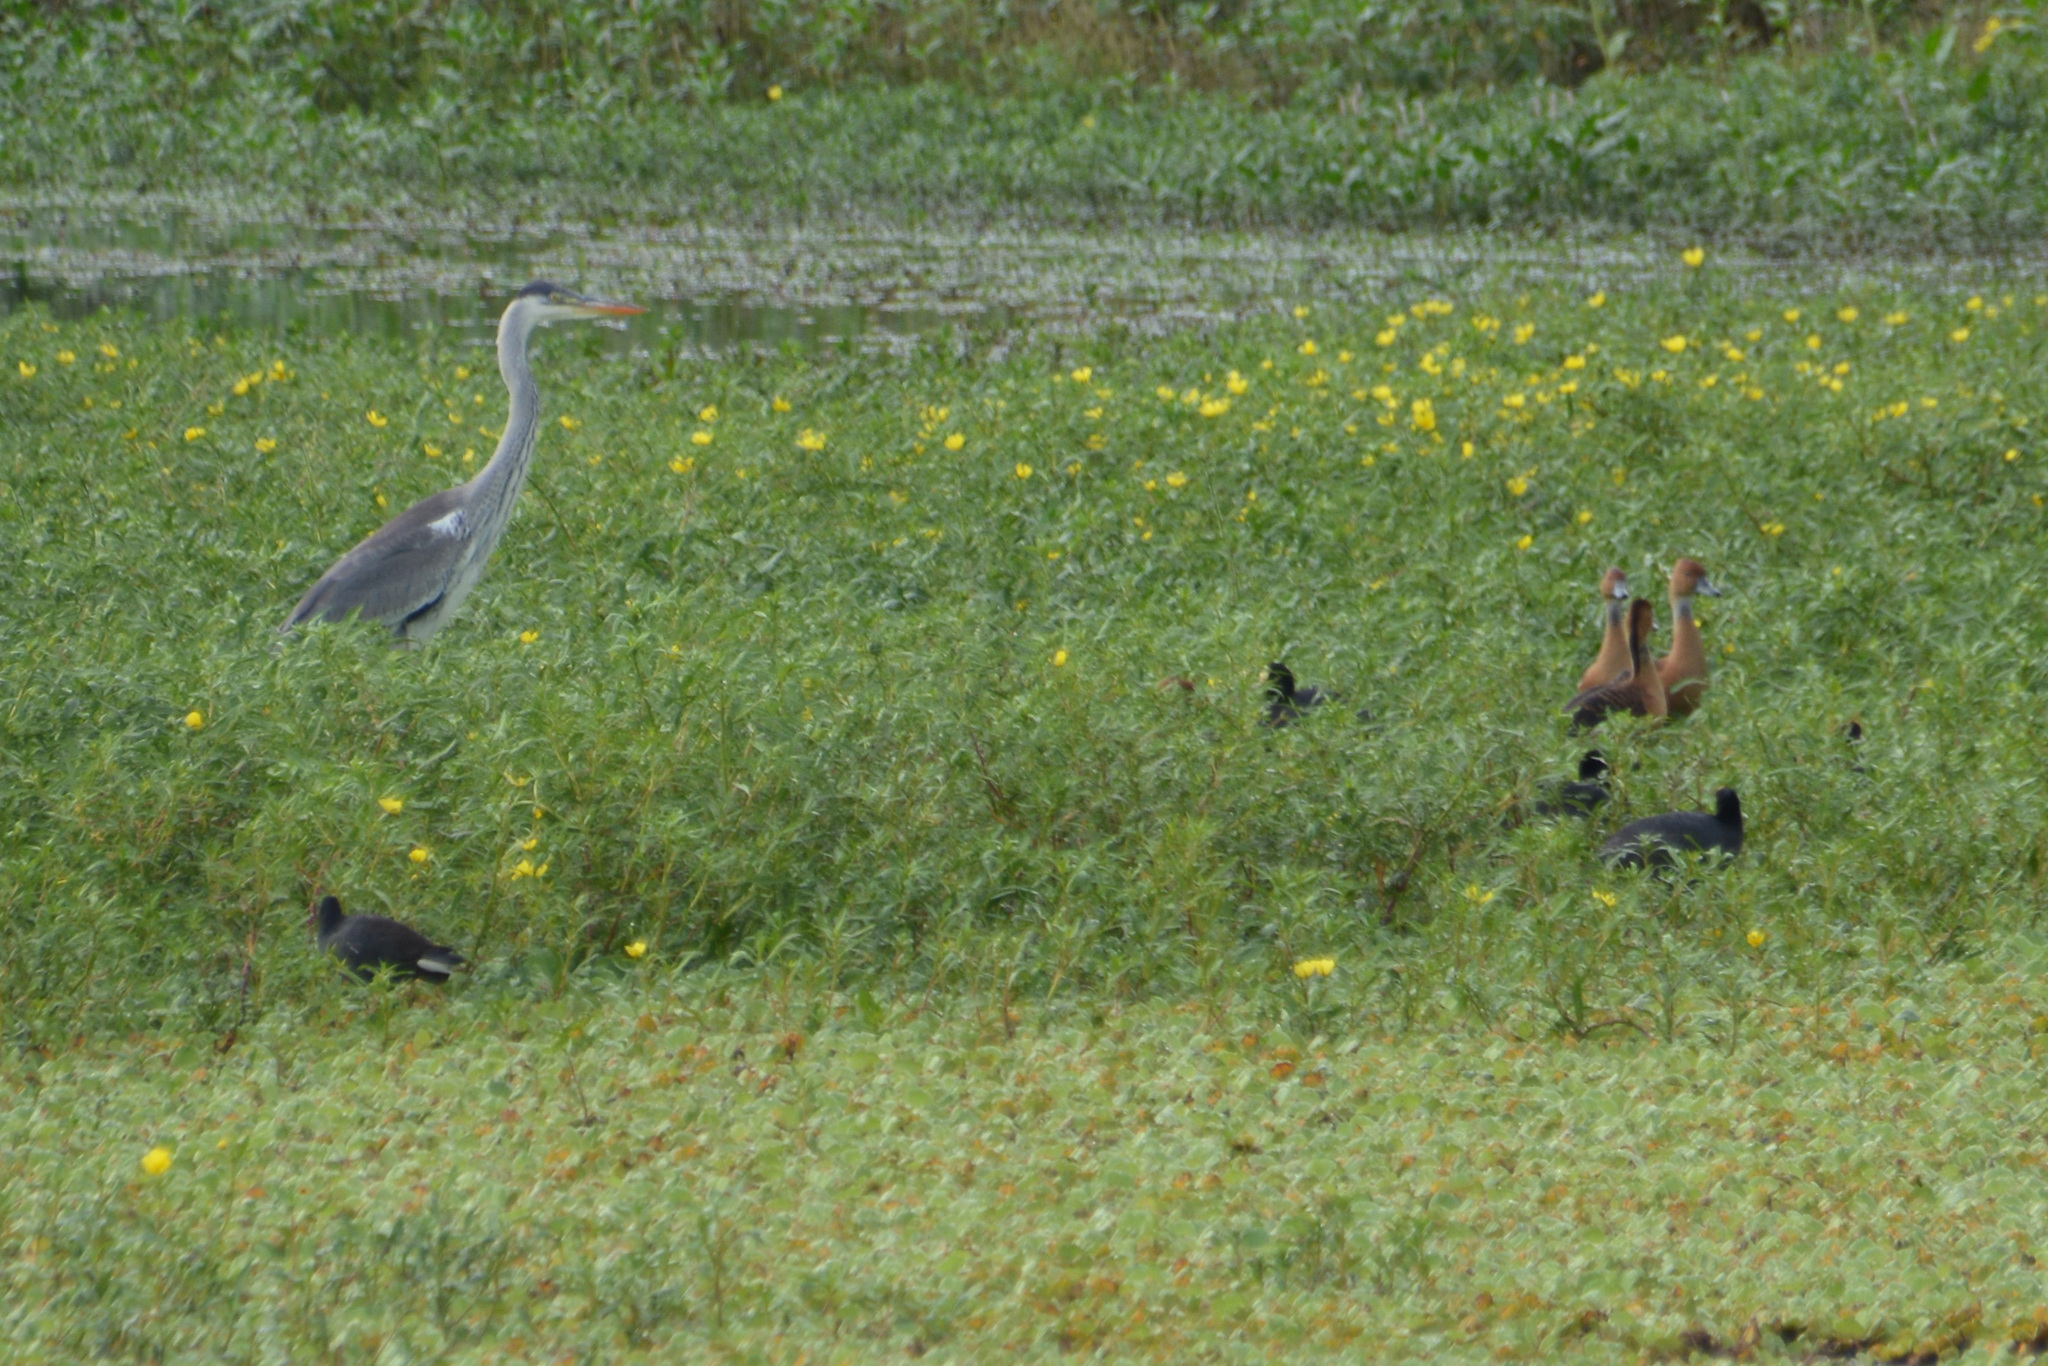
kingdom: Animalia
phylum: Chordata
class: Aves
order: Pelecaniformes
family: Ardeidae
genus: Ardea
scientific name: Ardea cocoi
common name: Cocoi heron
